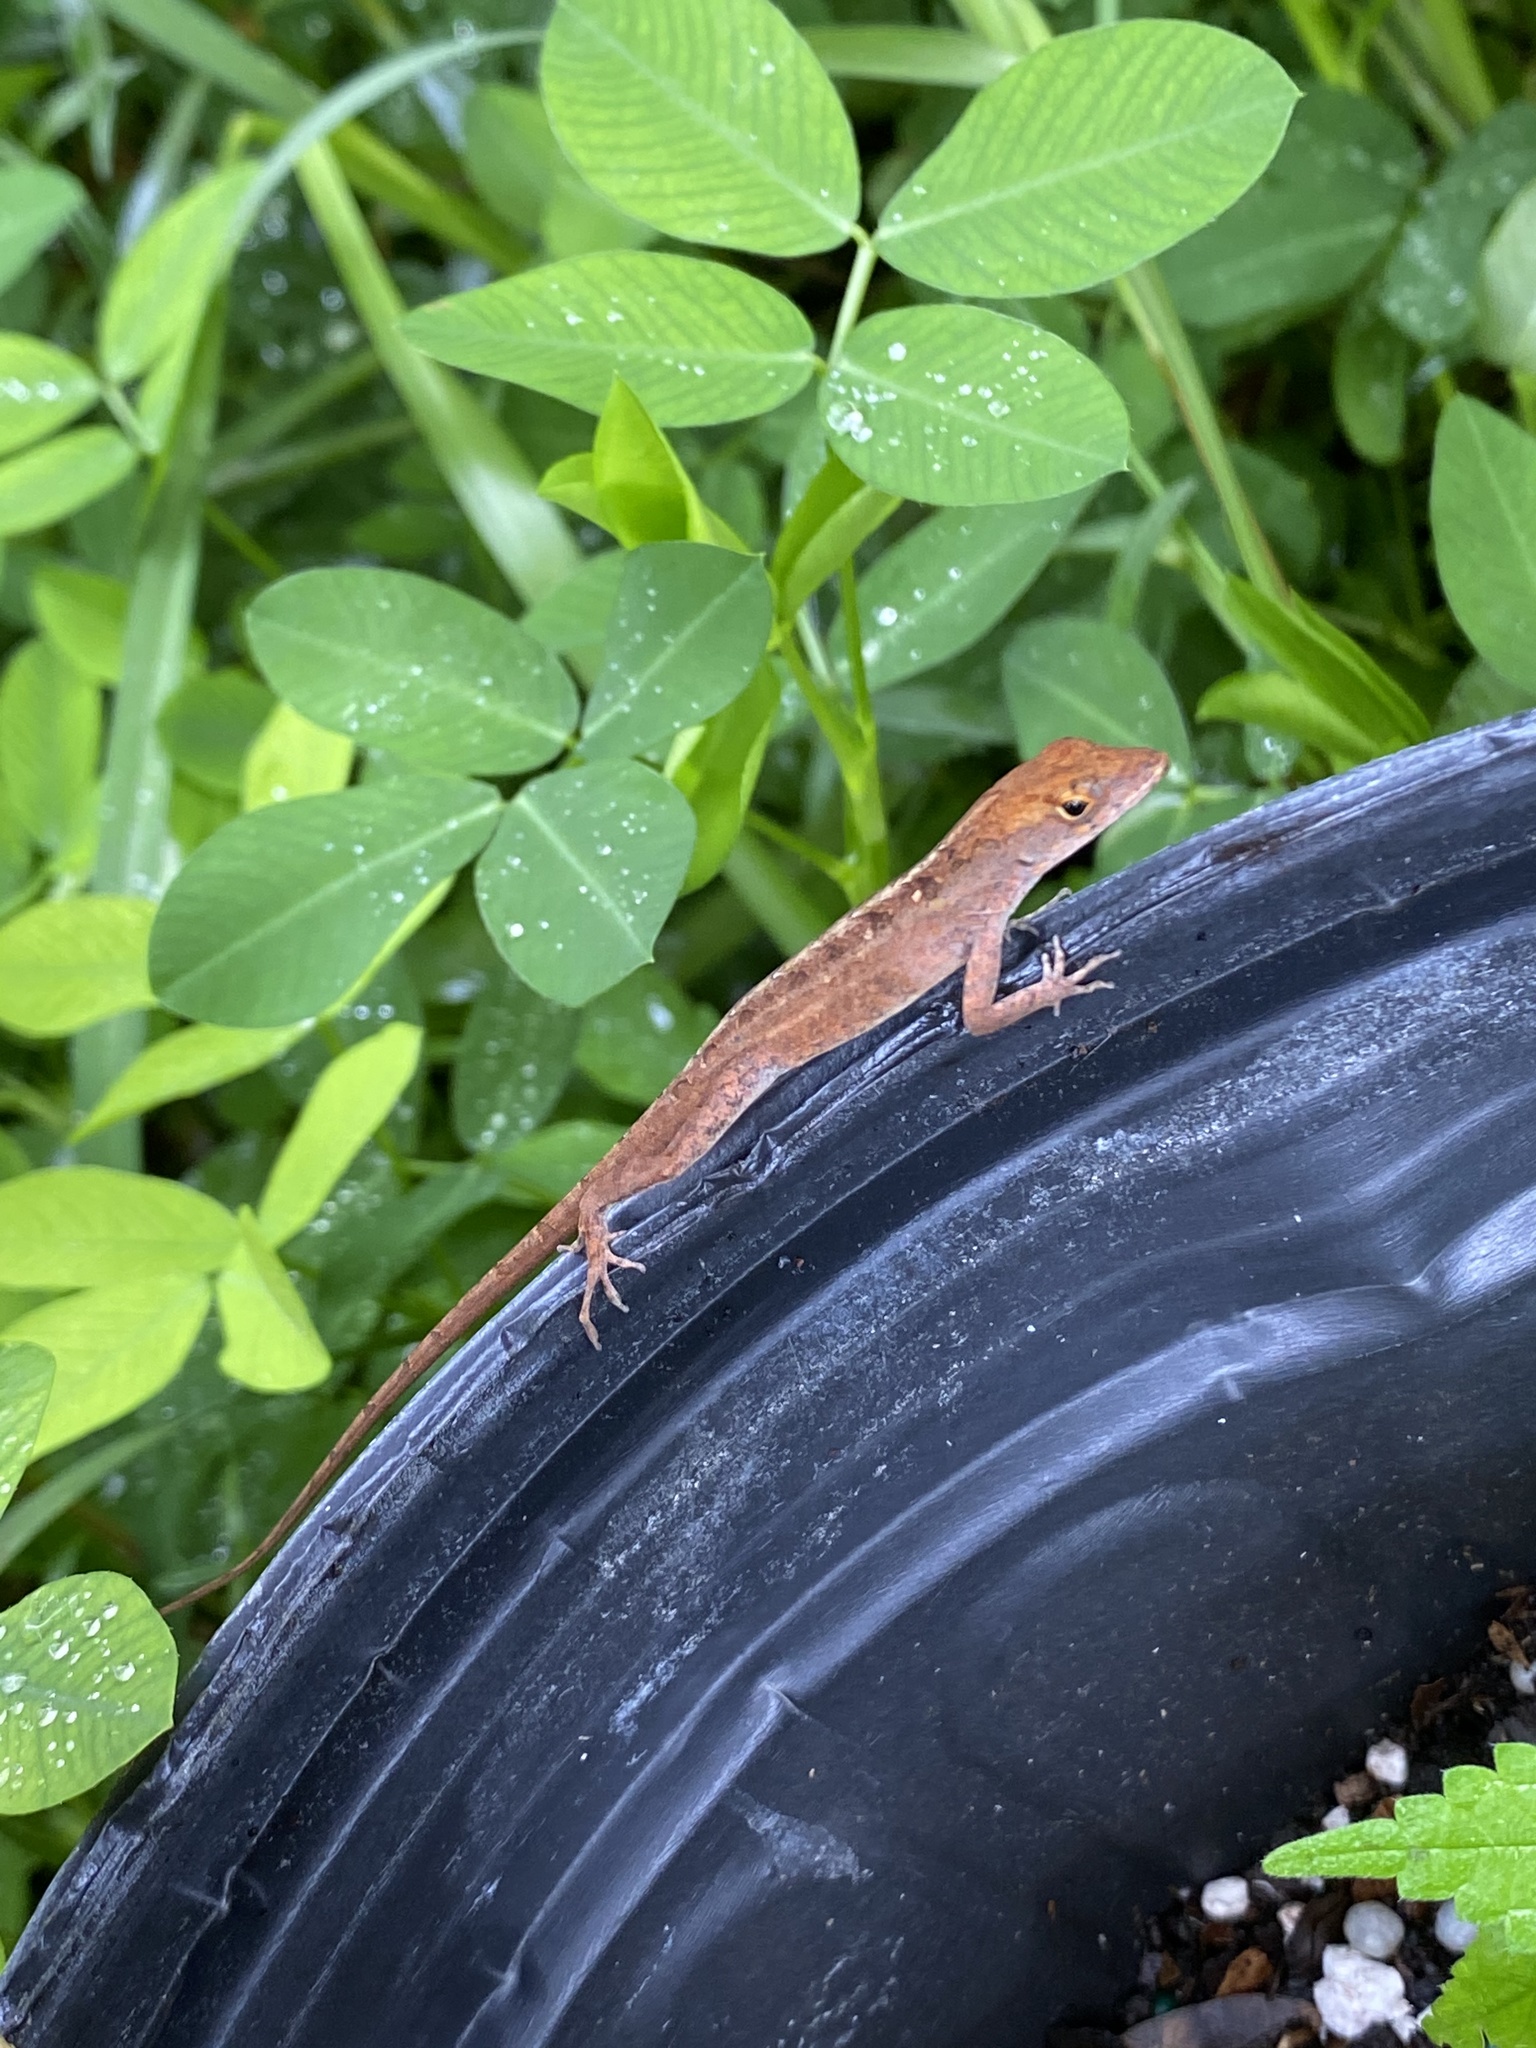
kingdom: Animalia
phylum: Chordata
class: Squamata
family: Dactyloidae
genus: Anolis
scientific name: Anolis sagrei
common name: Brown anole
